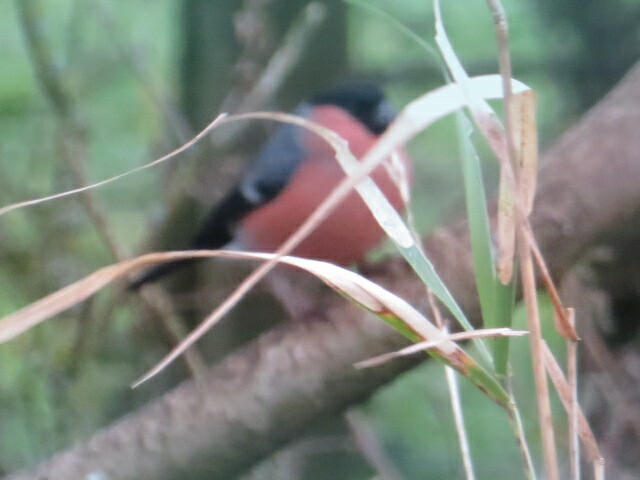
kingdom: Animalia
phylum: Chordata
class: Aves
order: Passeriformes
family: Fringillidae
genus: Pyrrhula
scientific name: Pyrrhula pyrrhula
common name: Eurasian bullfinch
